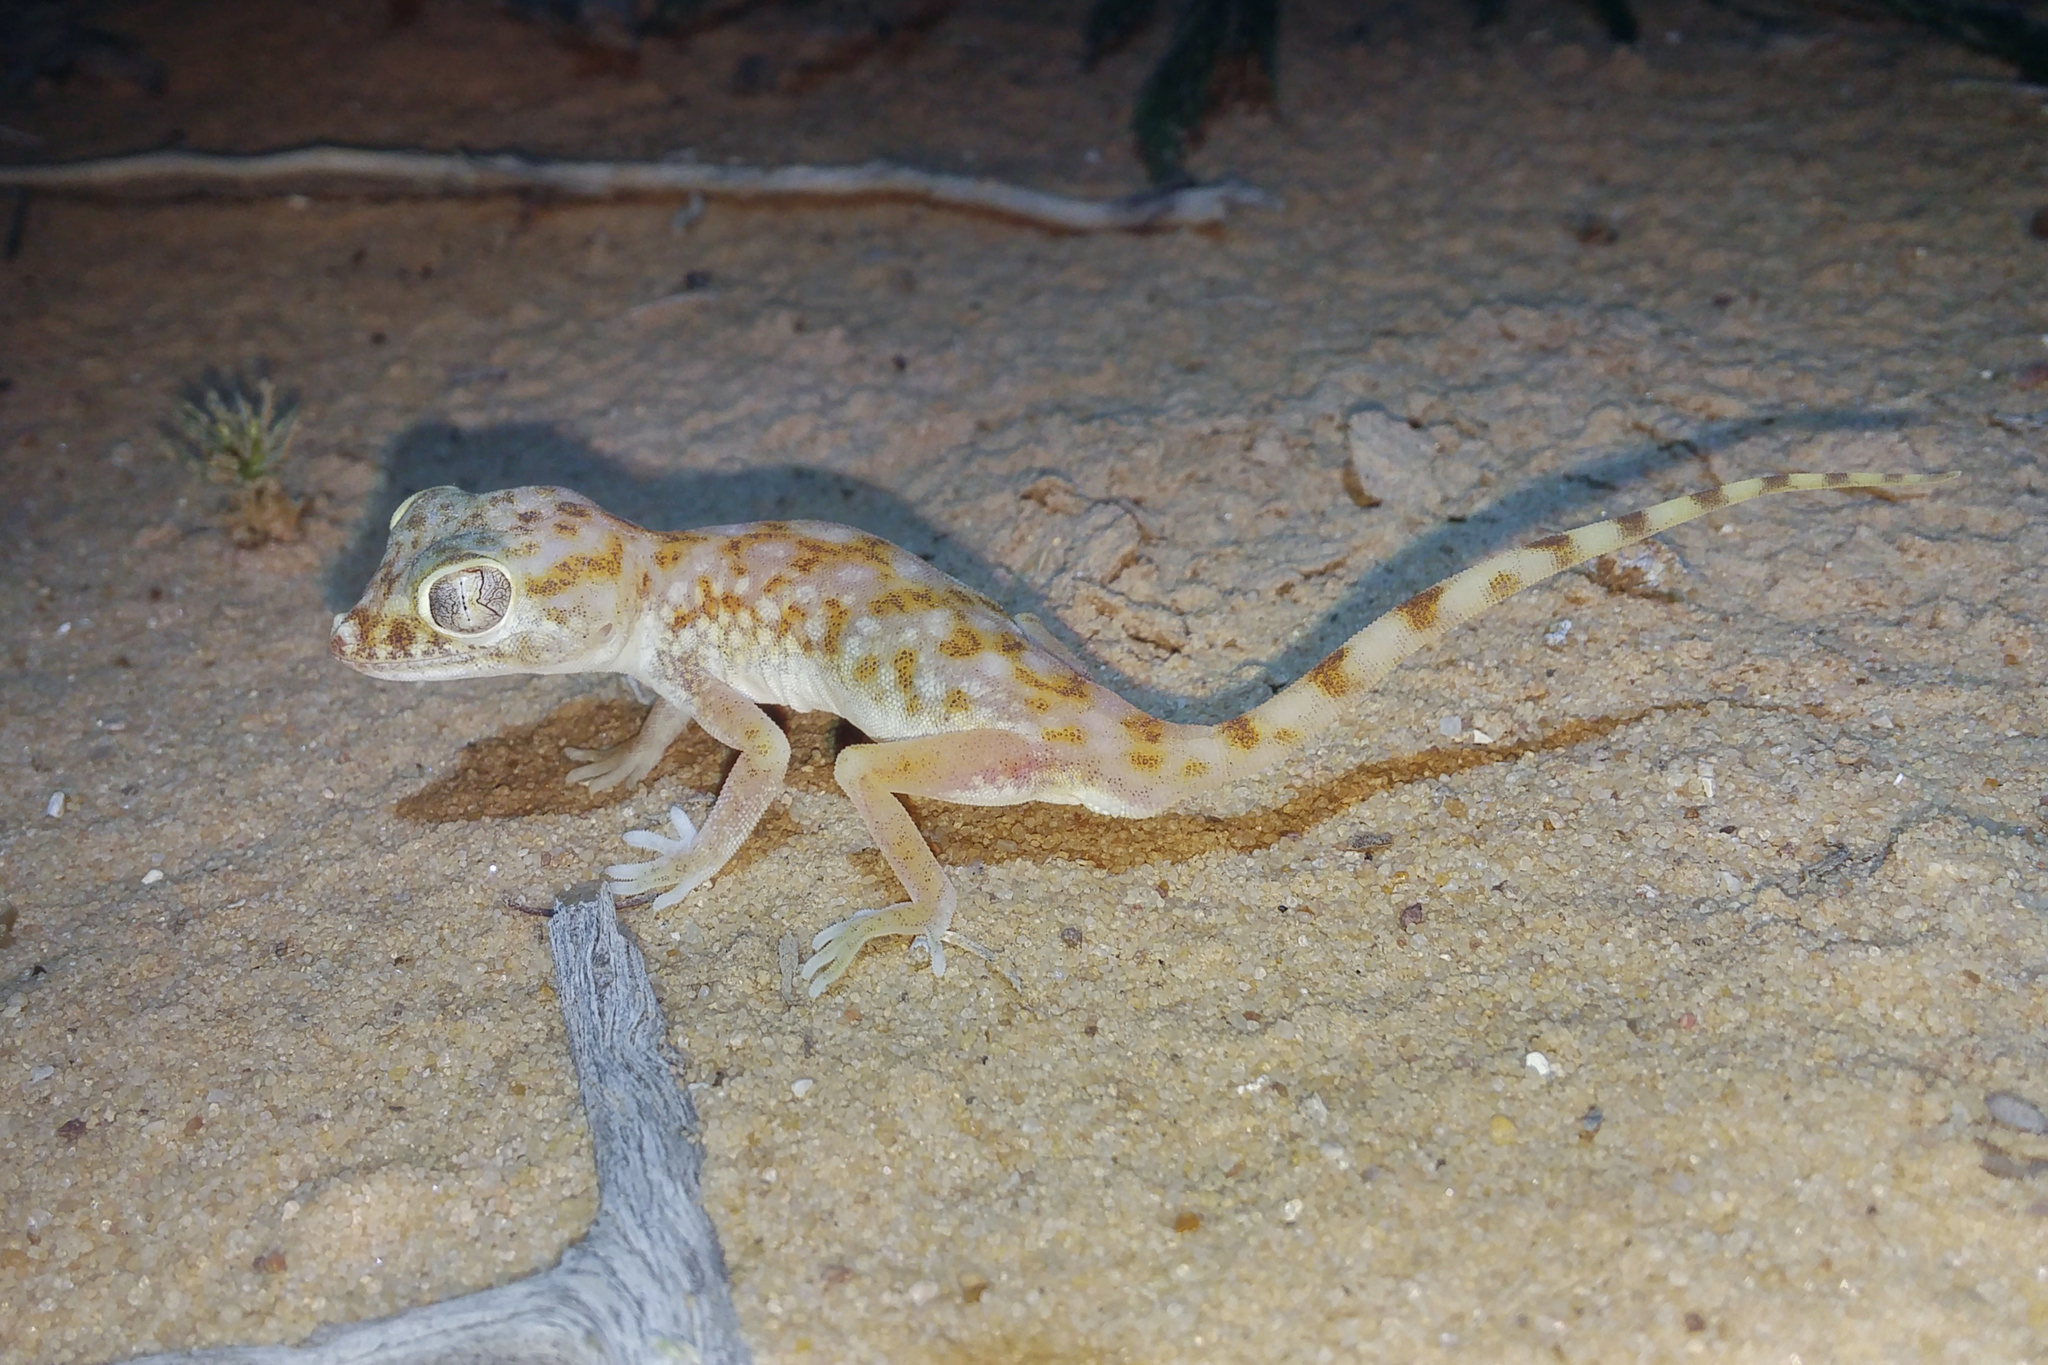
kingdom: Animalia
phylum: Chordata
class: Squamata
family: Gekkonidae
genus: Stenodactylus
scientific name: Stenodactylus doriae
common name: Dune sand gecko
